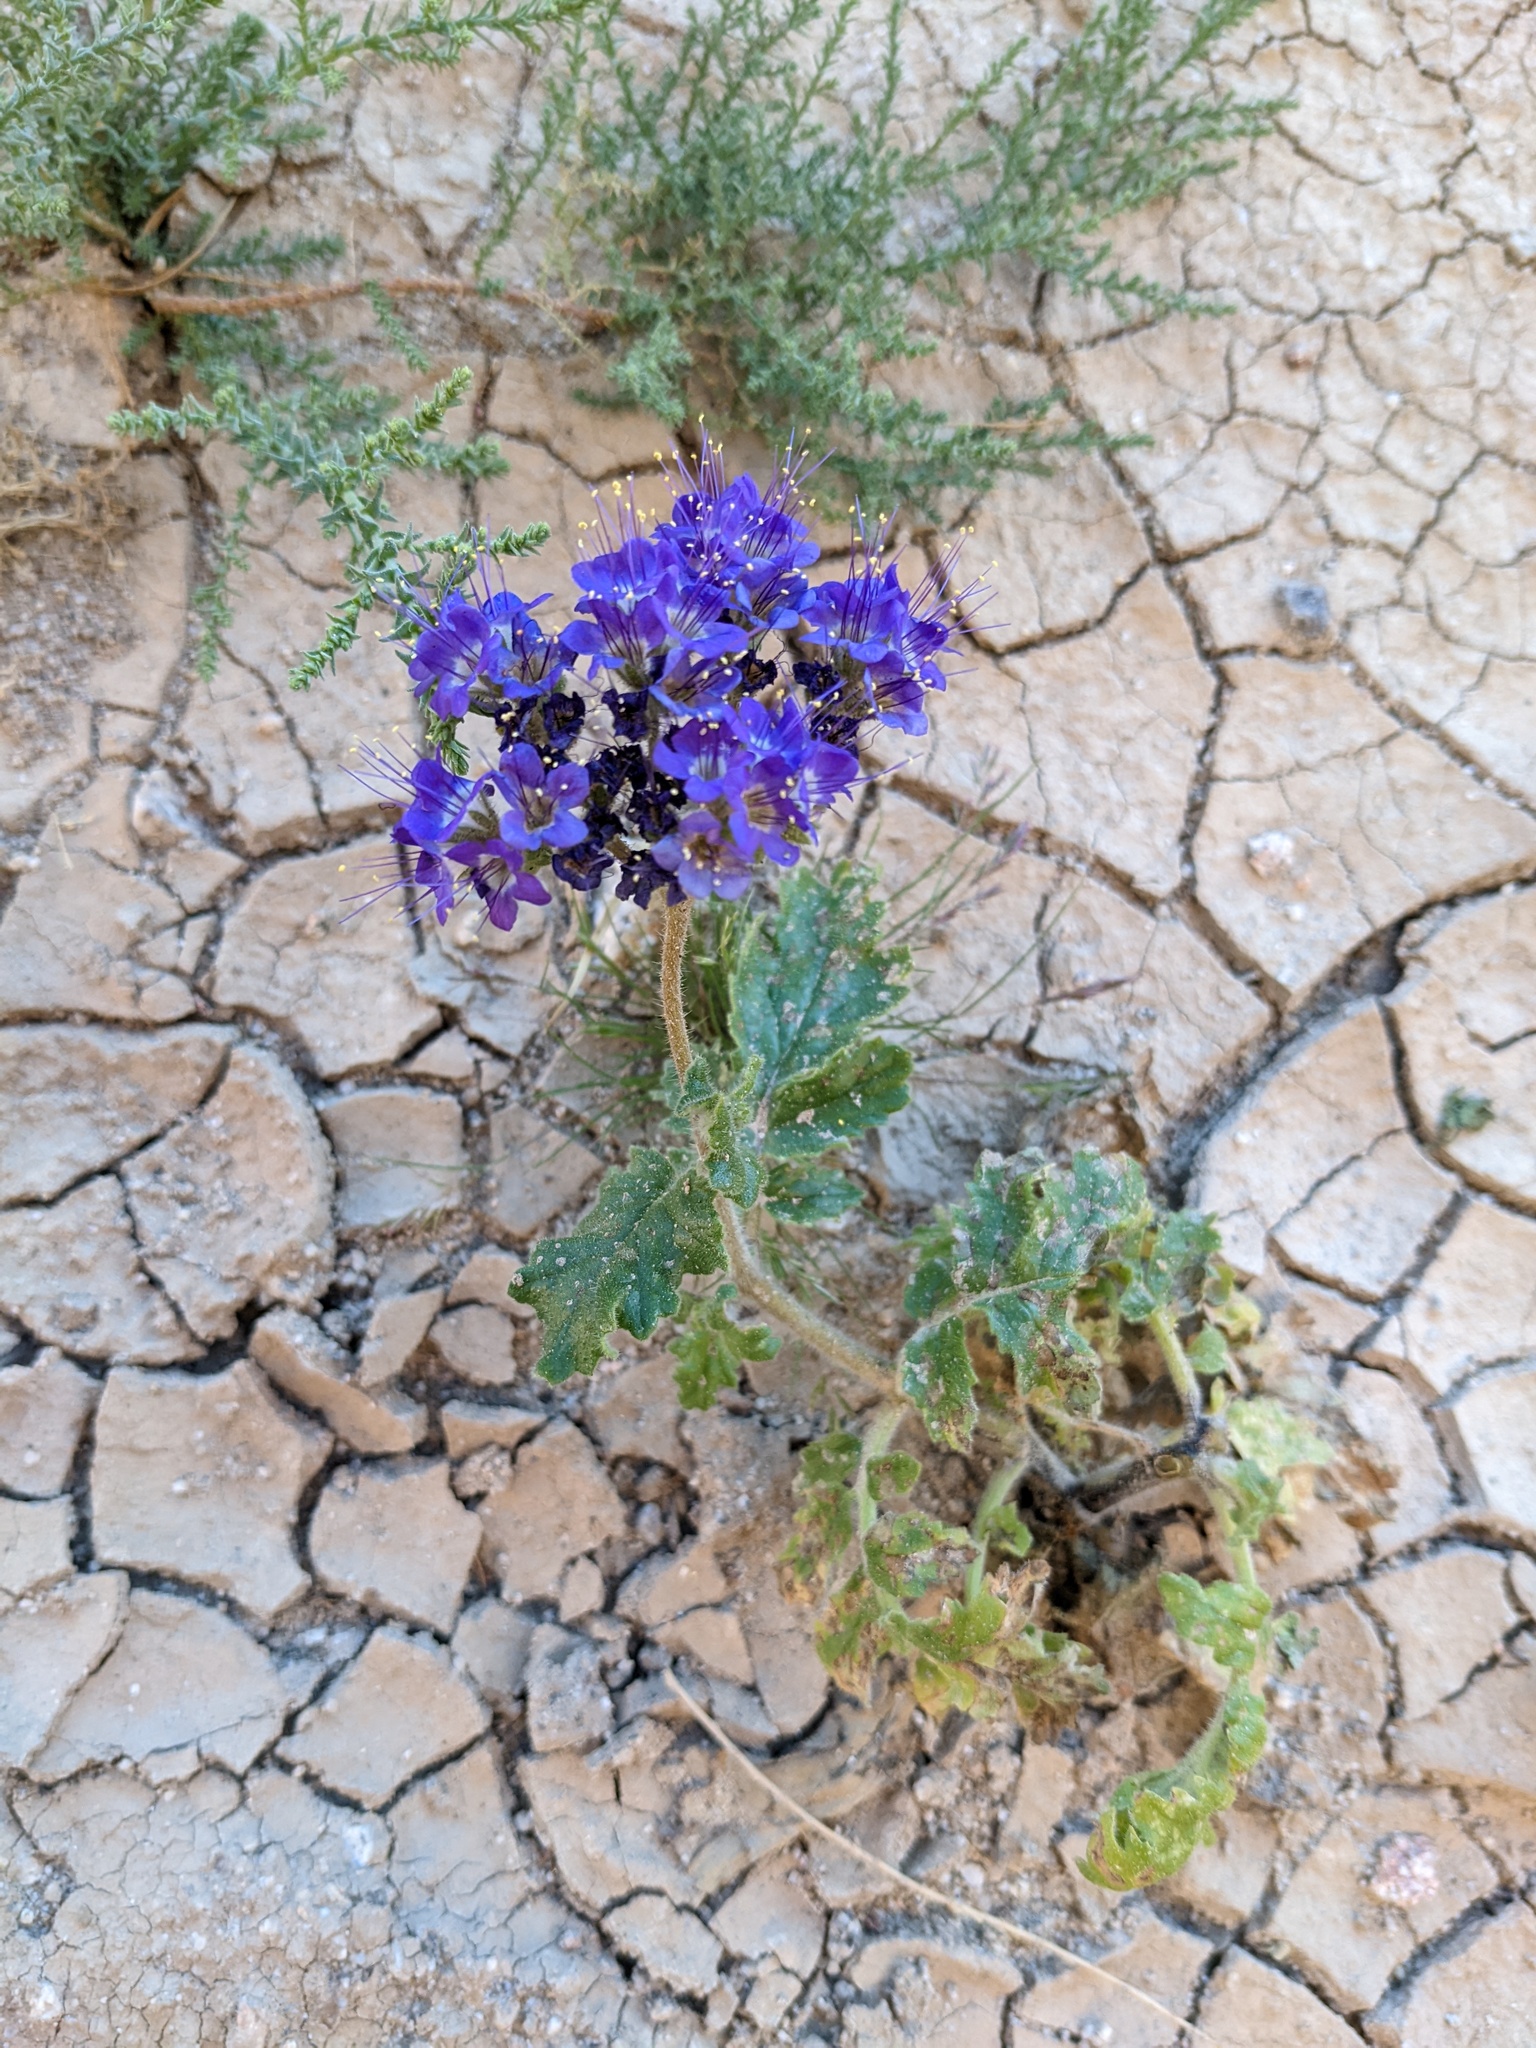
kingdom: Plantae
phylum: Tracheophyta
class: Magnoliopsida
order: Boraginales
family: Hydrophyllaceae
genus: Phacelia
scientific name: Phacelia crenulata
